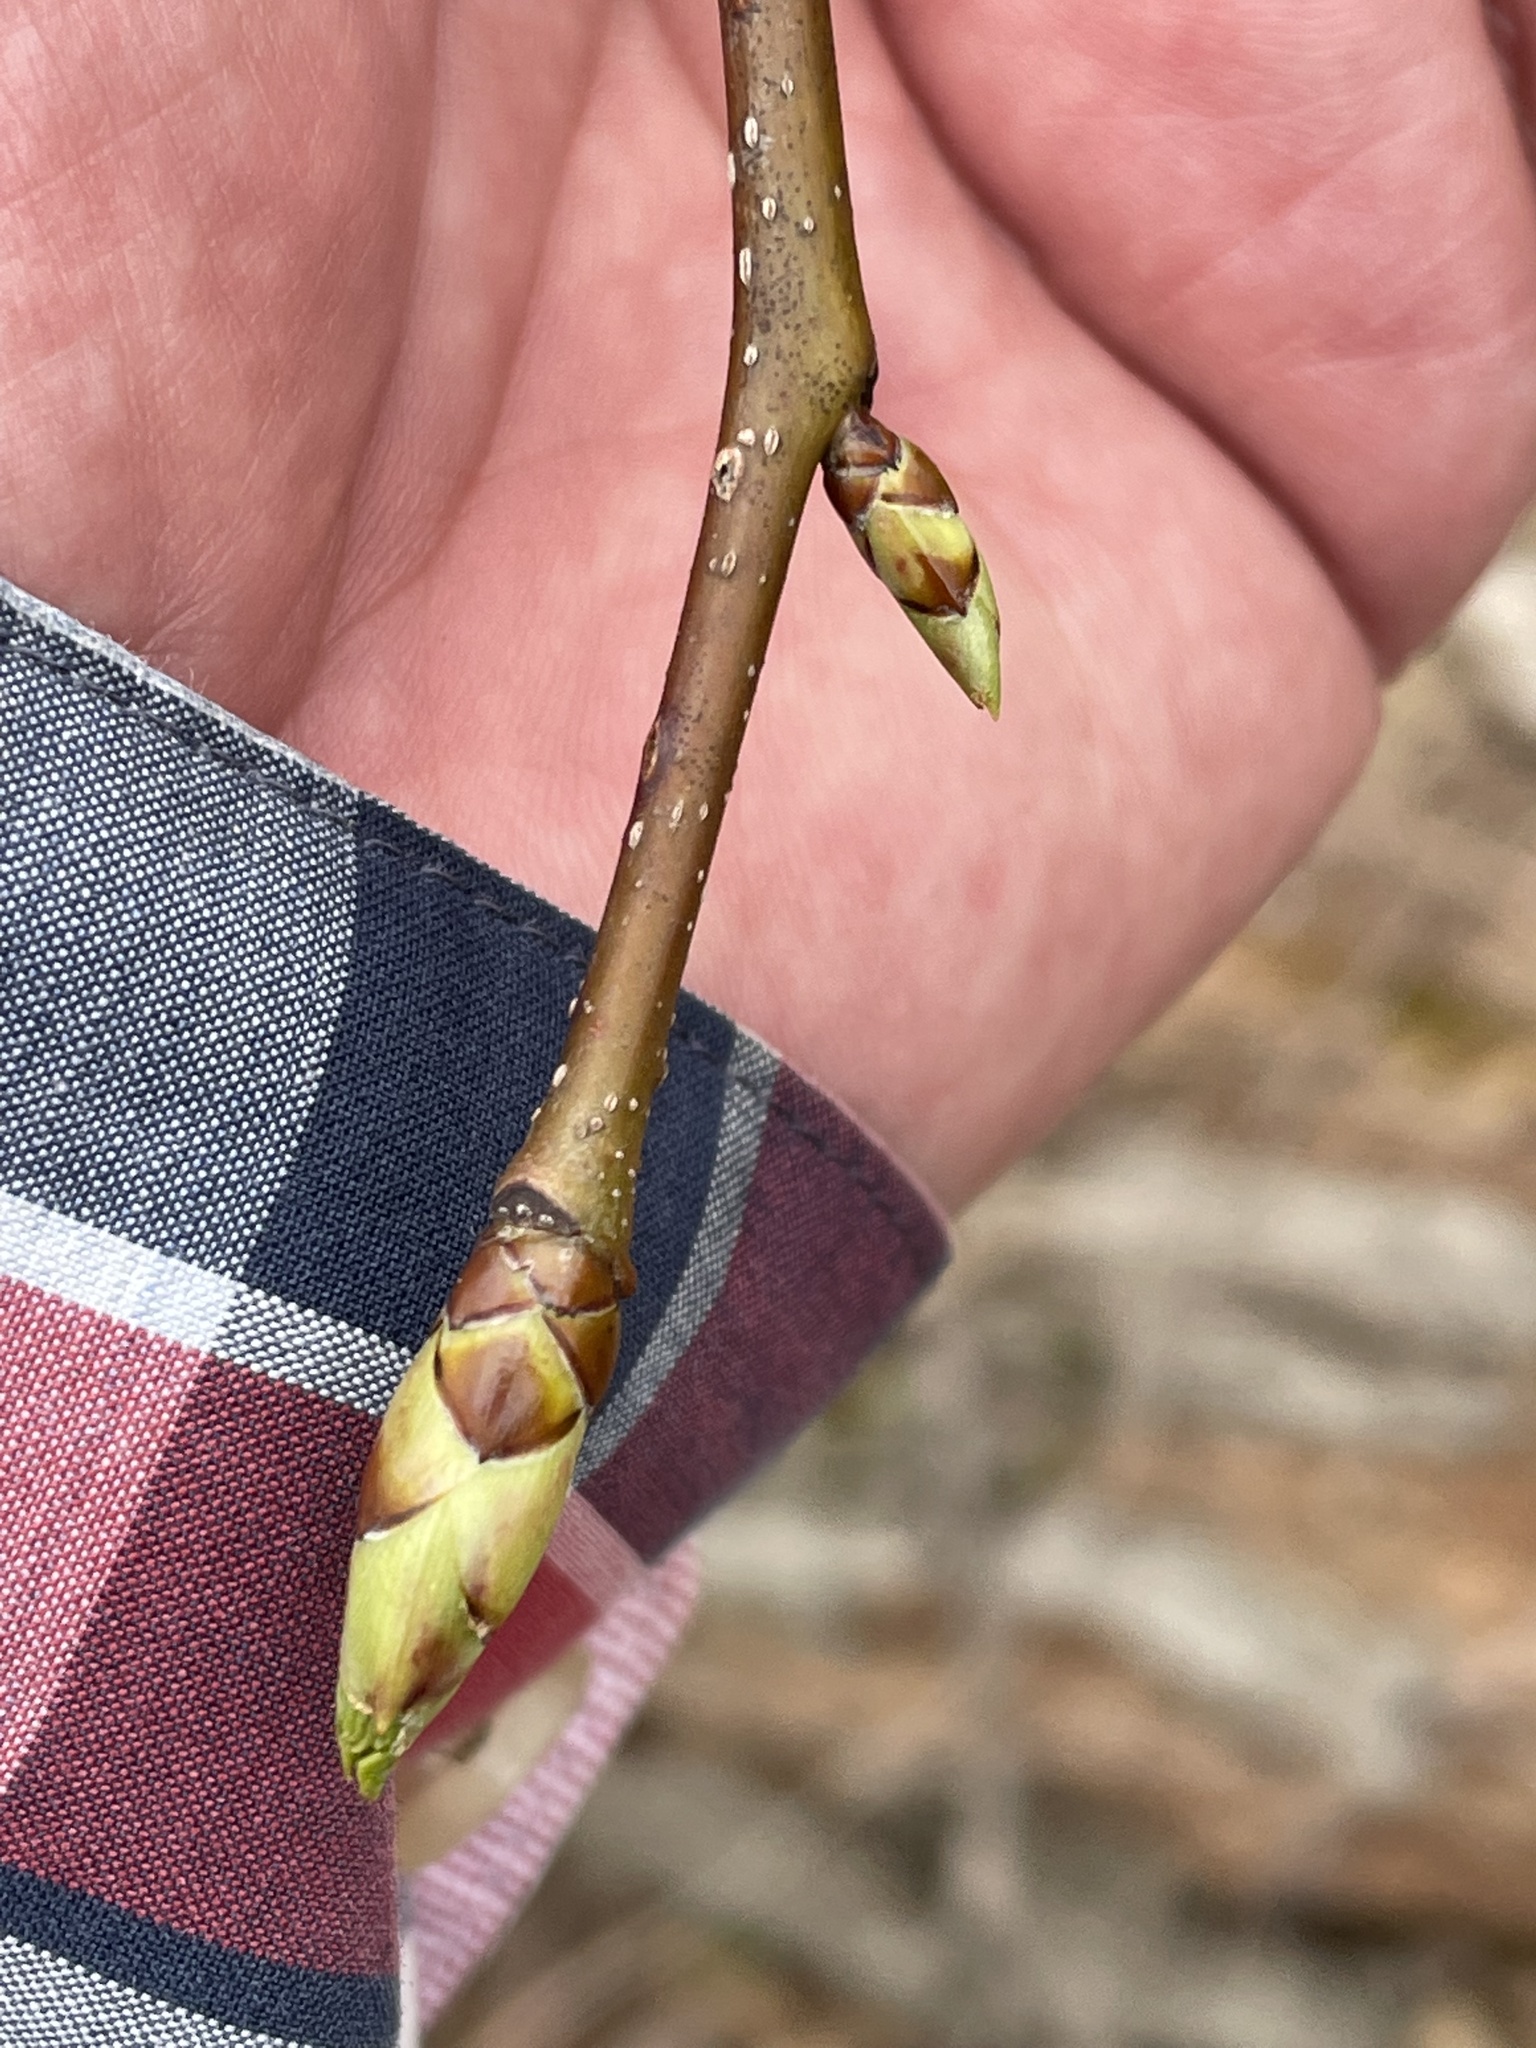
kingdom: Plantae
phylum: Tracheophyta
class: Magnoliopsida
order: Saxifragales
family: Altingiaceae
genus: Liquidambar
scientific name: Liquidambar styraciflua
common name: Sweet gum
